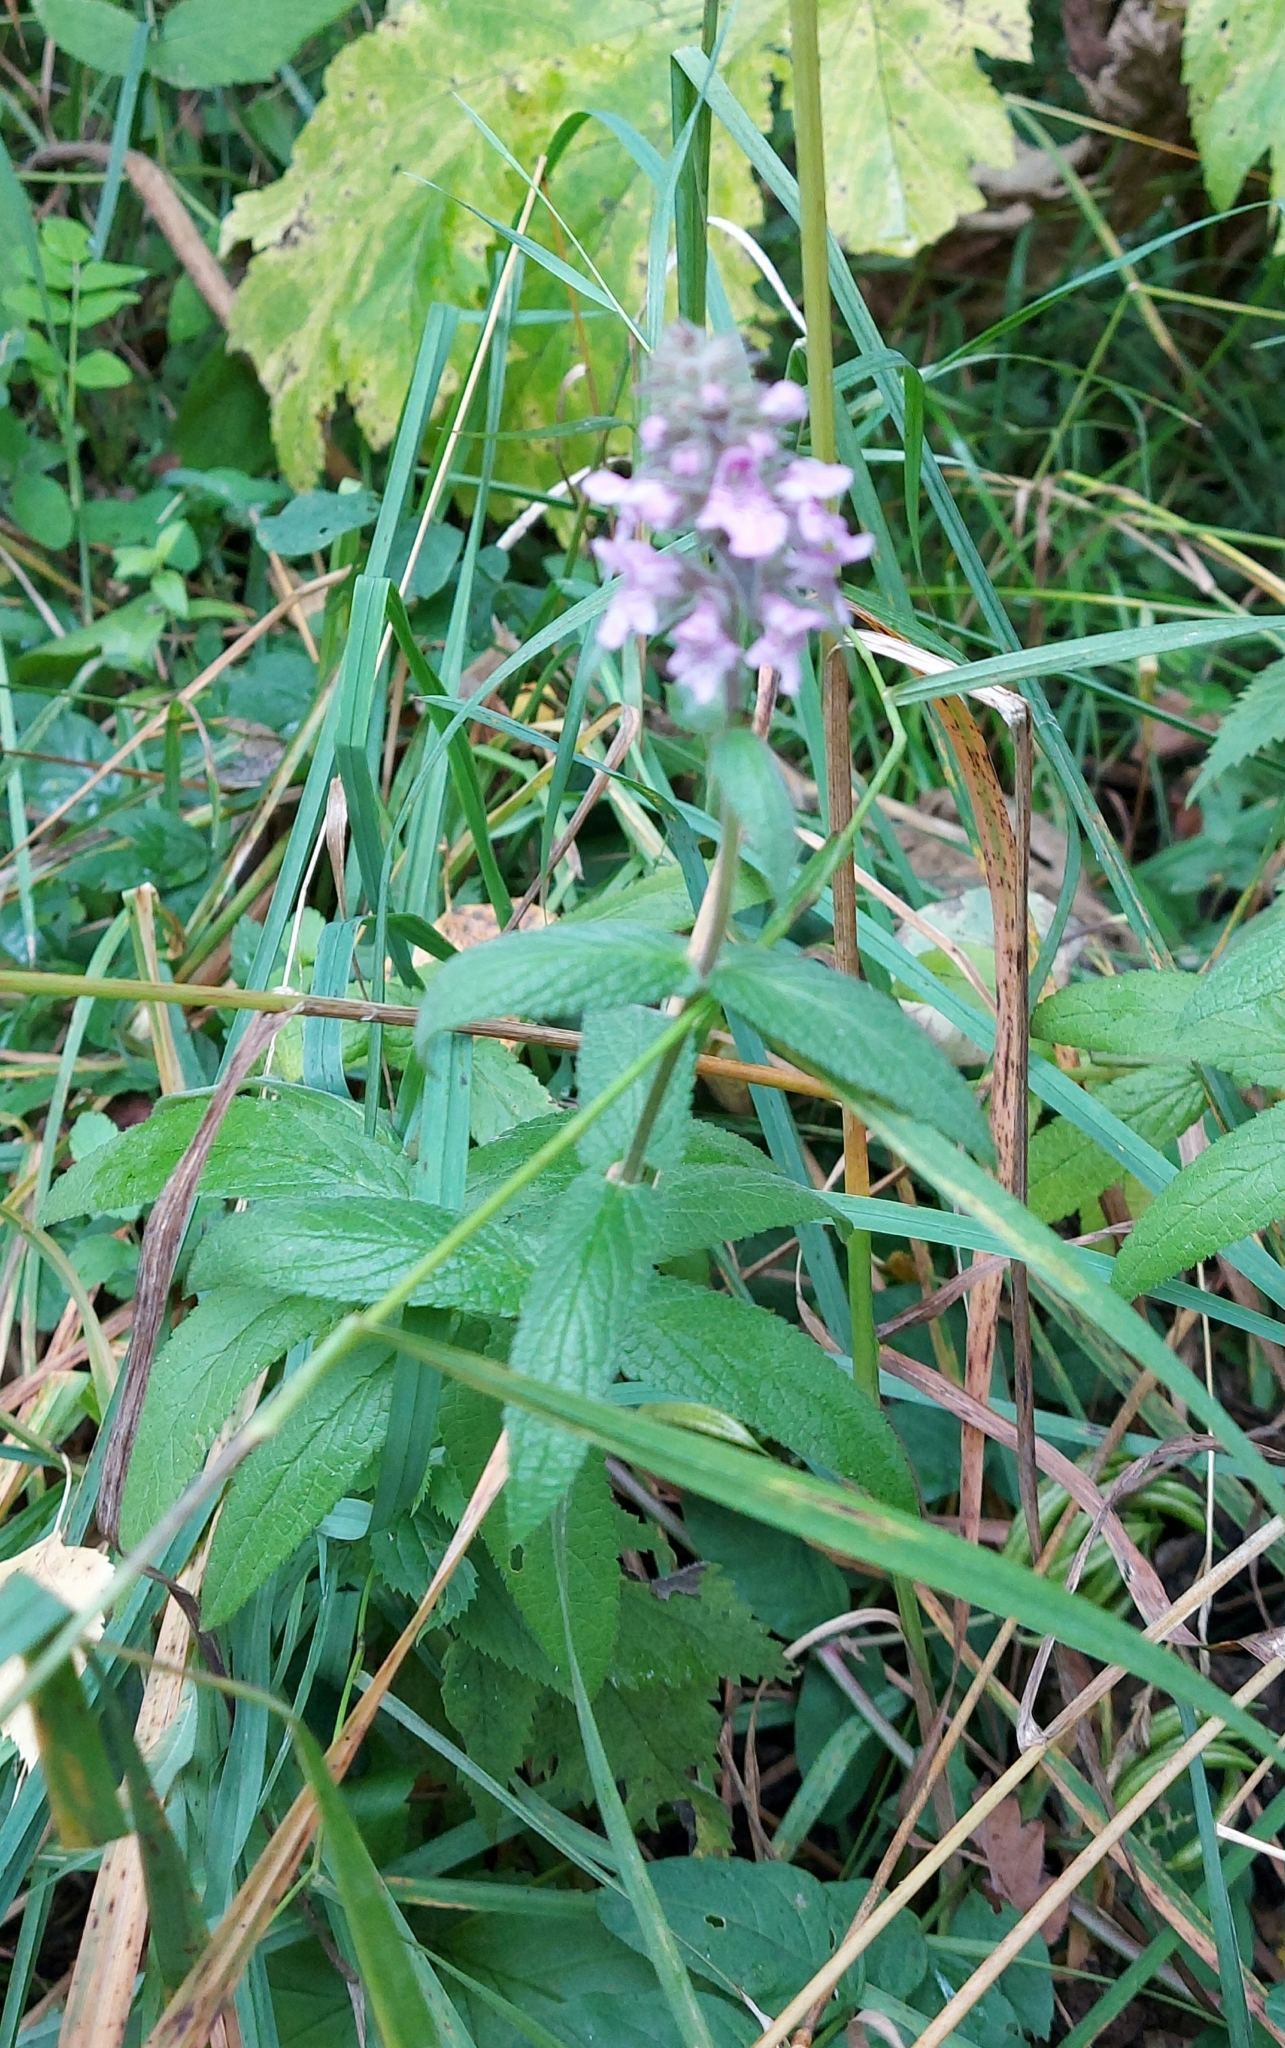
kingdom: Plantae
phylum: Tracheophyta
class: Magnoliopsida
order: Lamiales
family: Lamiaceae
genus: Stachys
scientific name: Stachys palustris
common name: Marsh woundwort
